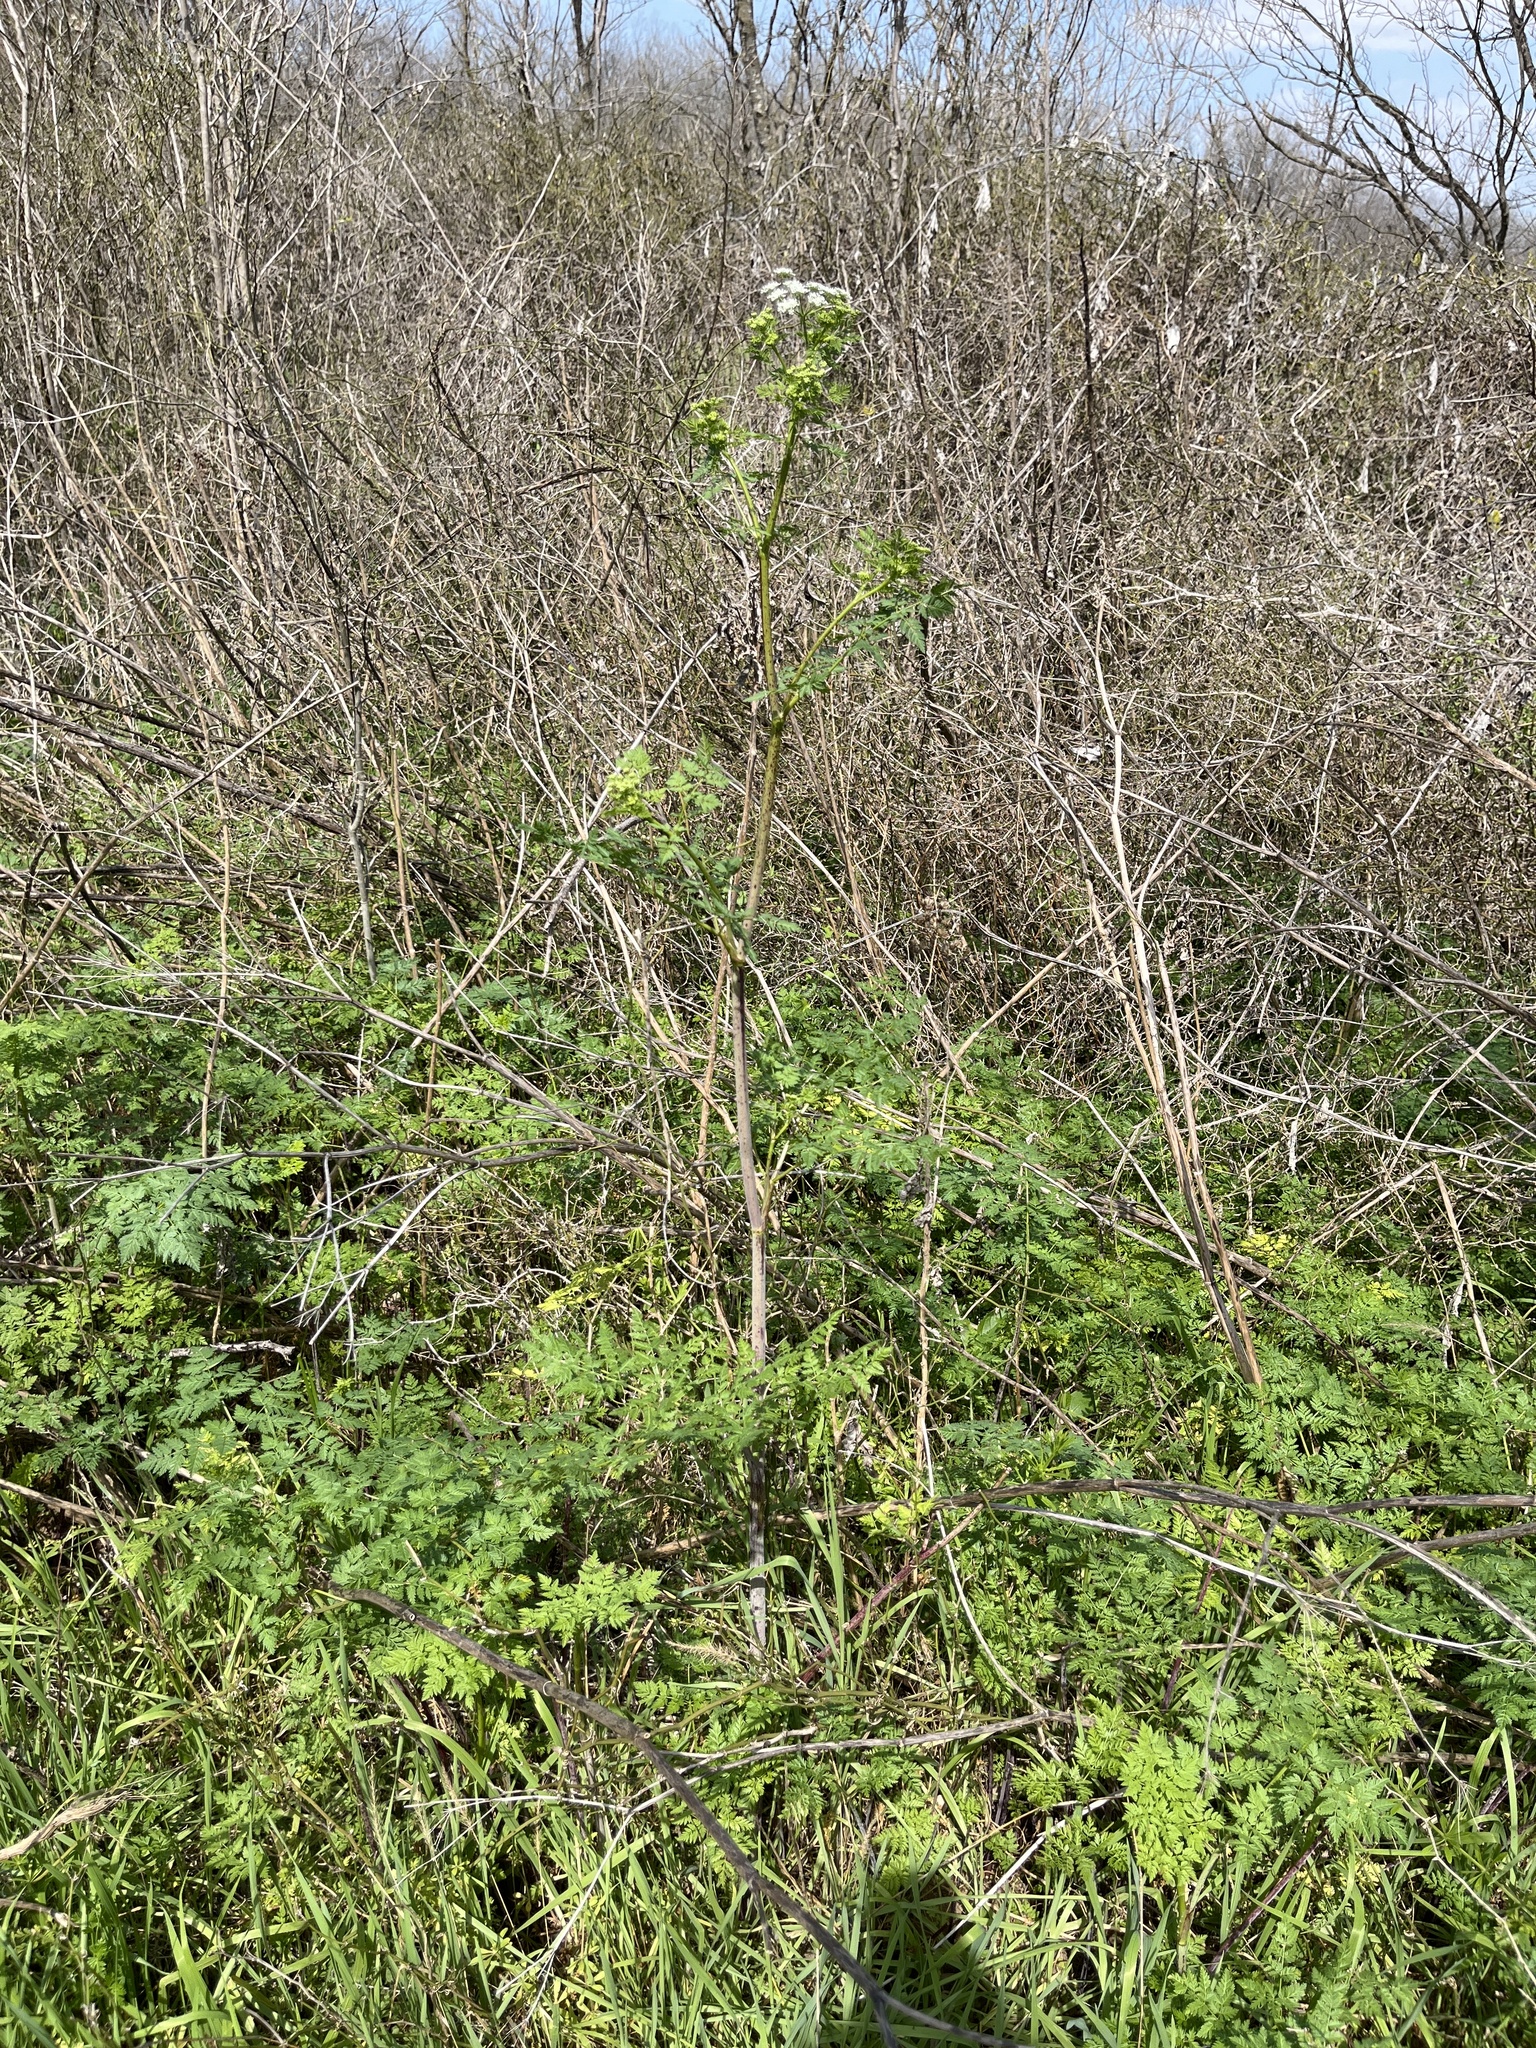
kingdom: Plantae
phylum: Tracheophyta
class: Magnoliopsida
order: Apiales
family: Apiaceae
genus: Conium
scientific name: Conium maculatum
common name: Hemlock
